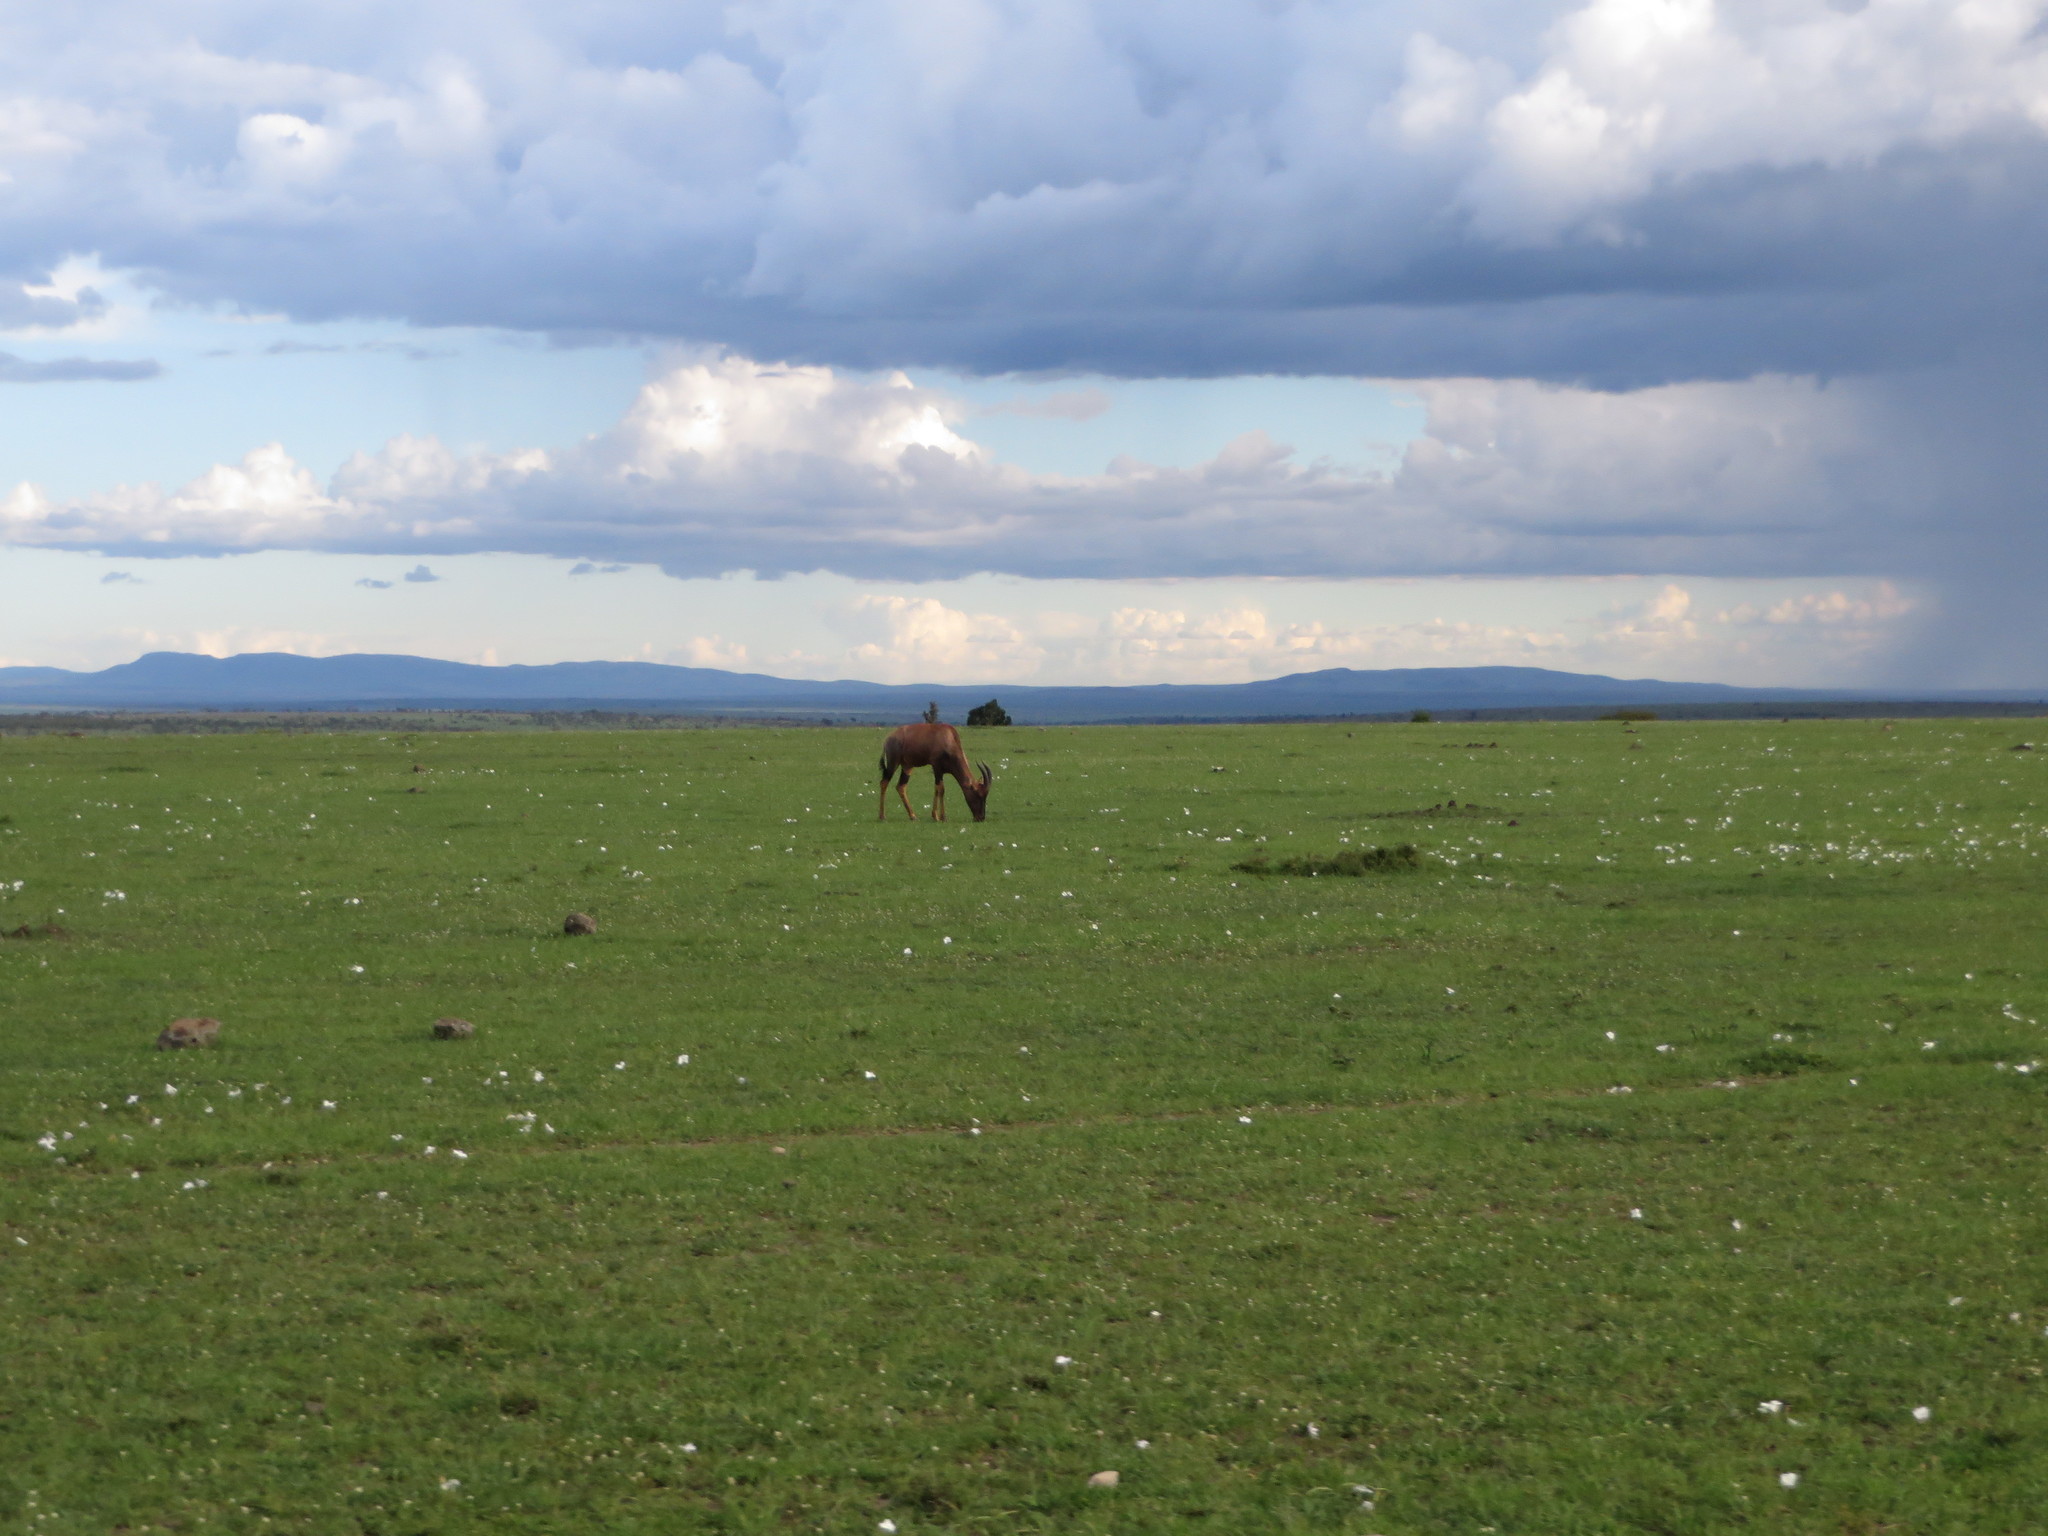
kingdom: Animalia
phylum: Chordata
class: Mammalia
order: Artiodactyla
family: Bovidae
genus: Damaliscus
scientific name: Damaliscus korrigum
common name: Topi
